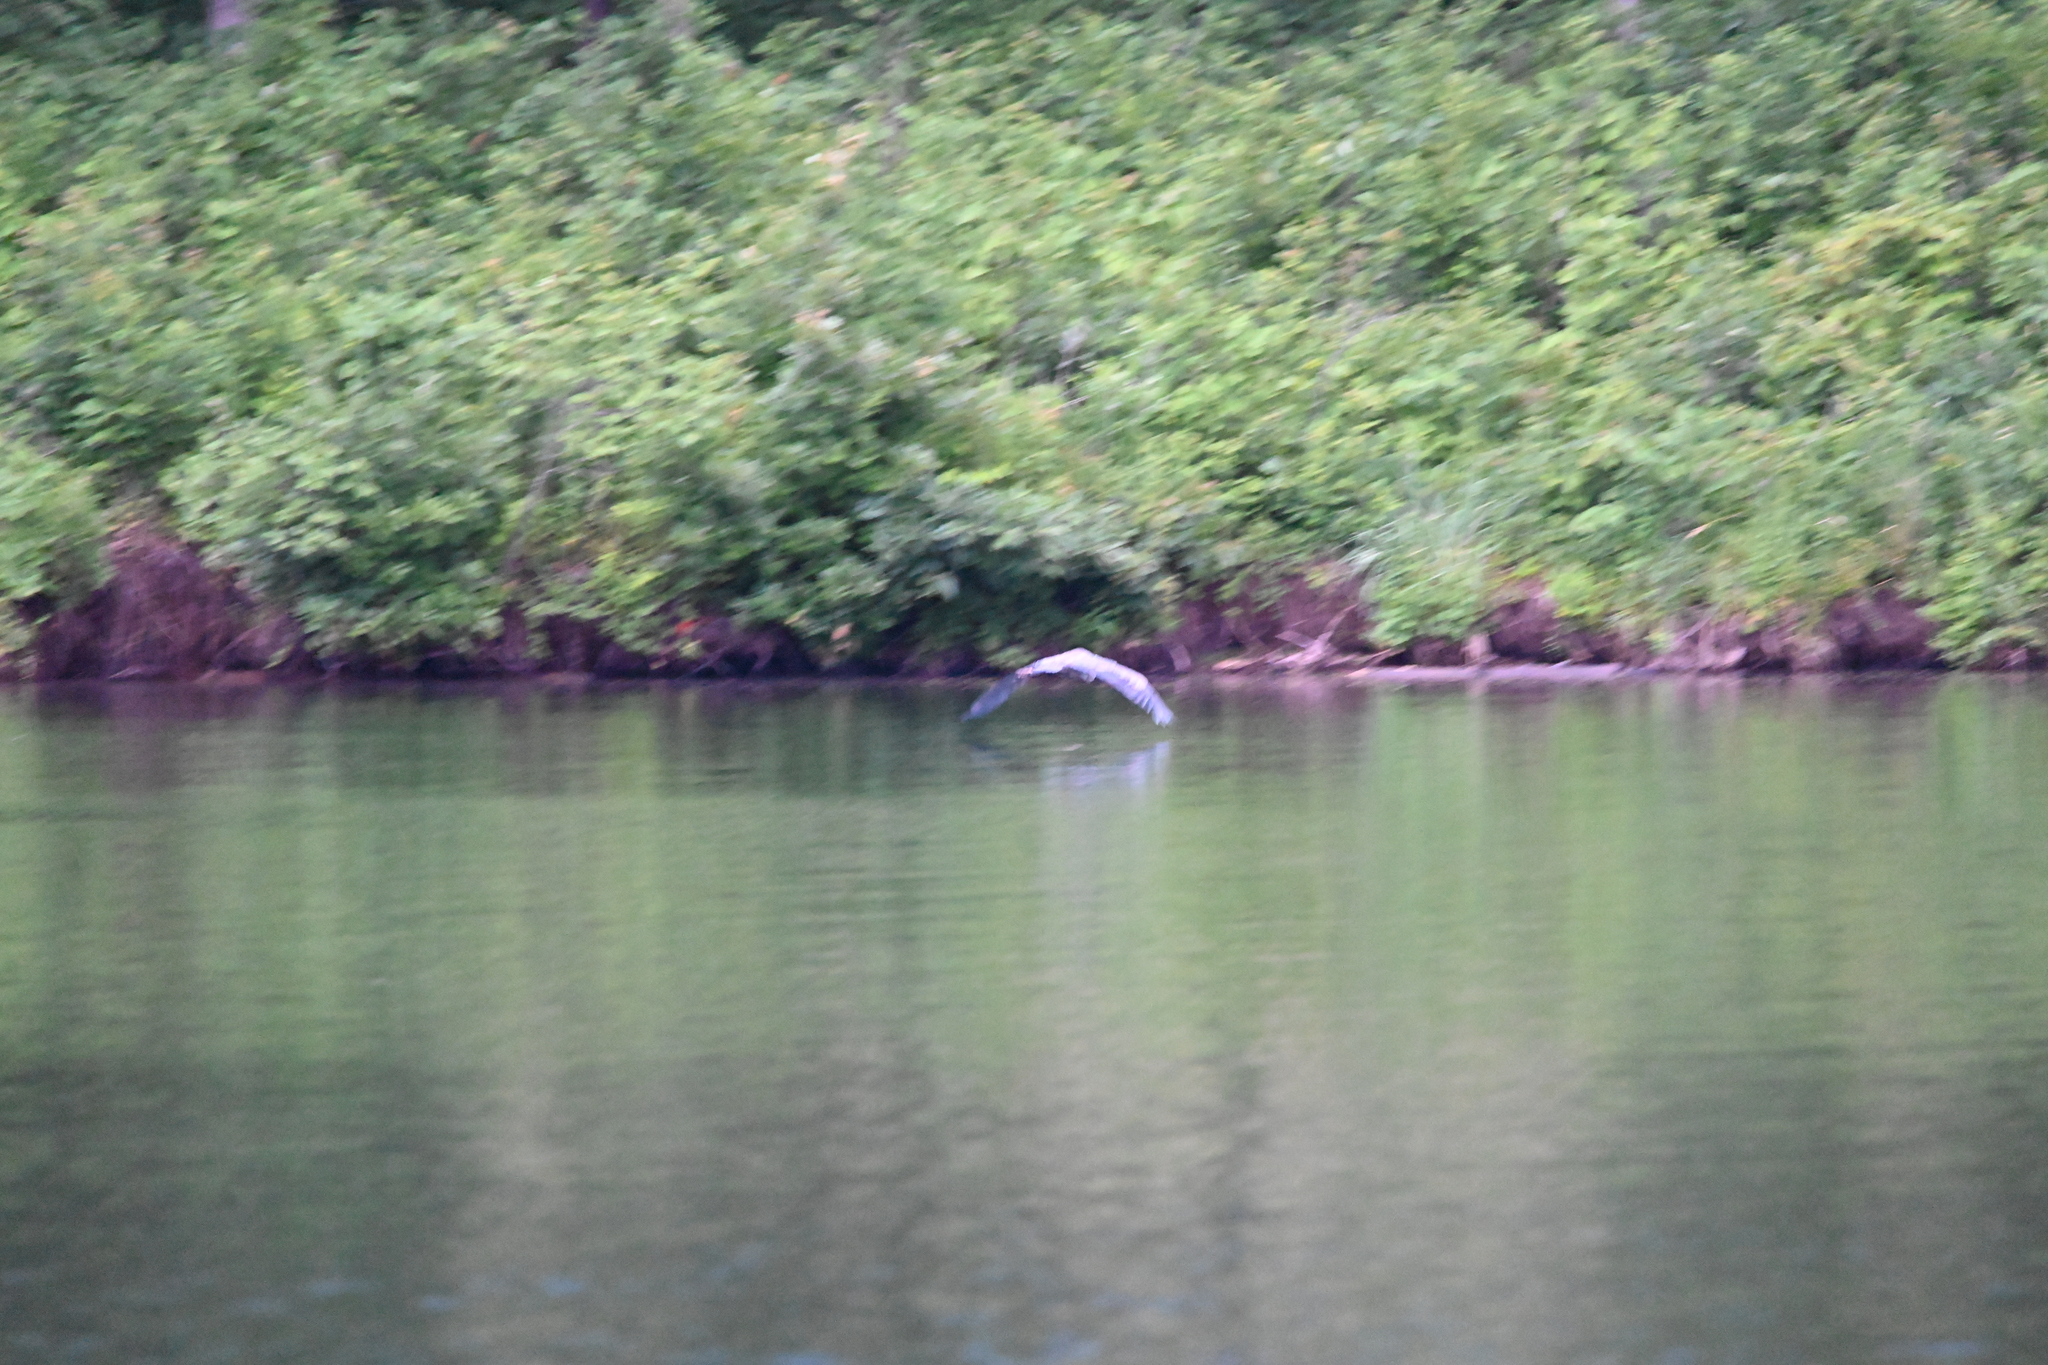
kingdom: Animalia
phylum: Chordata
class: Aves
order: Pelecaniformes
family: Ardeidae
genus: Ardea
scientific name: Ardea herodias
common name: Great blue heron
